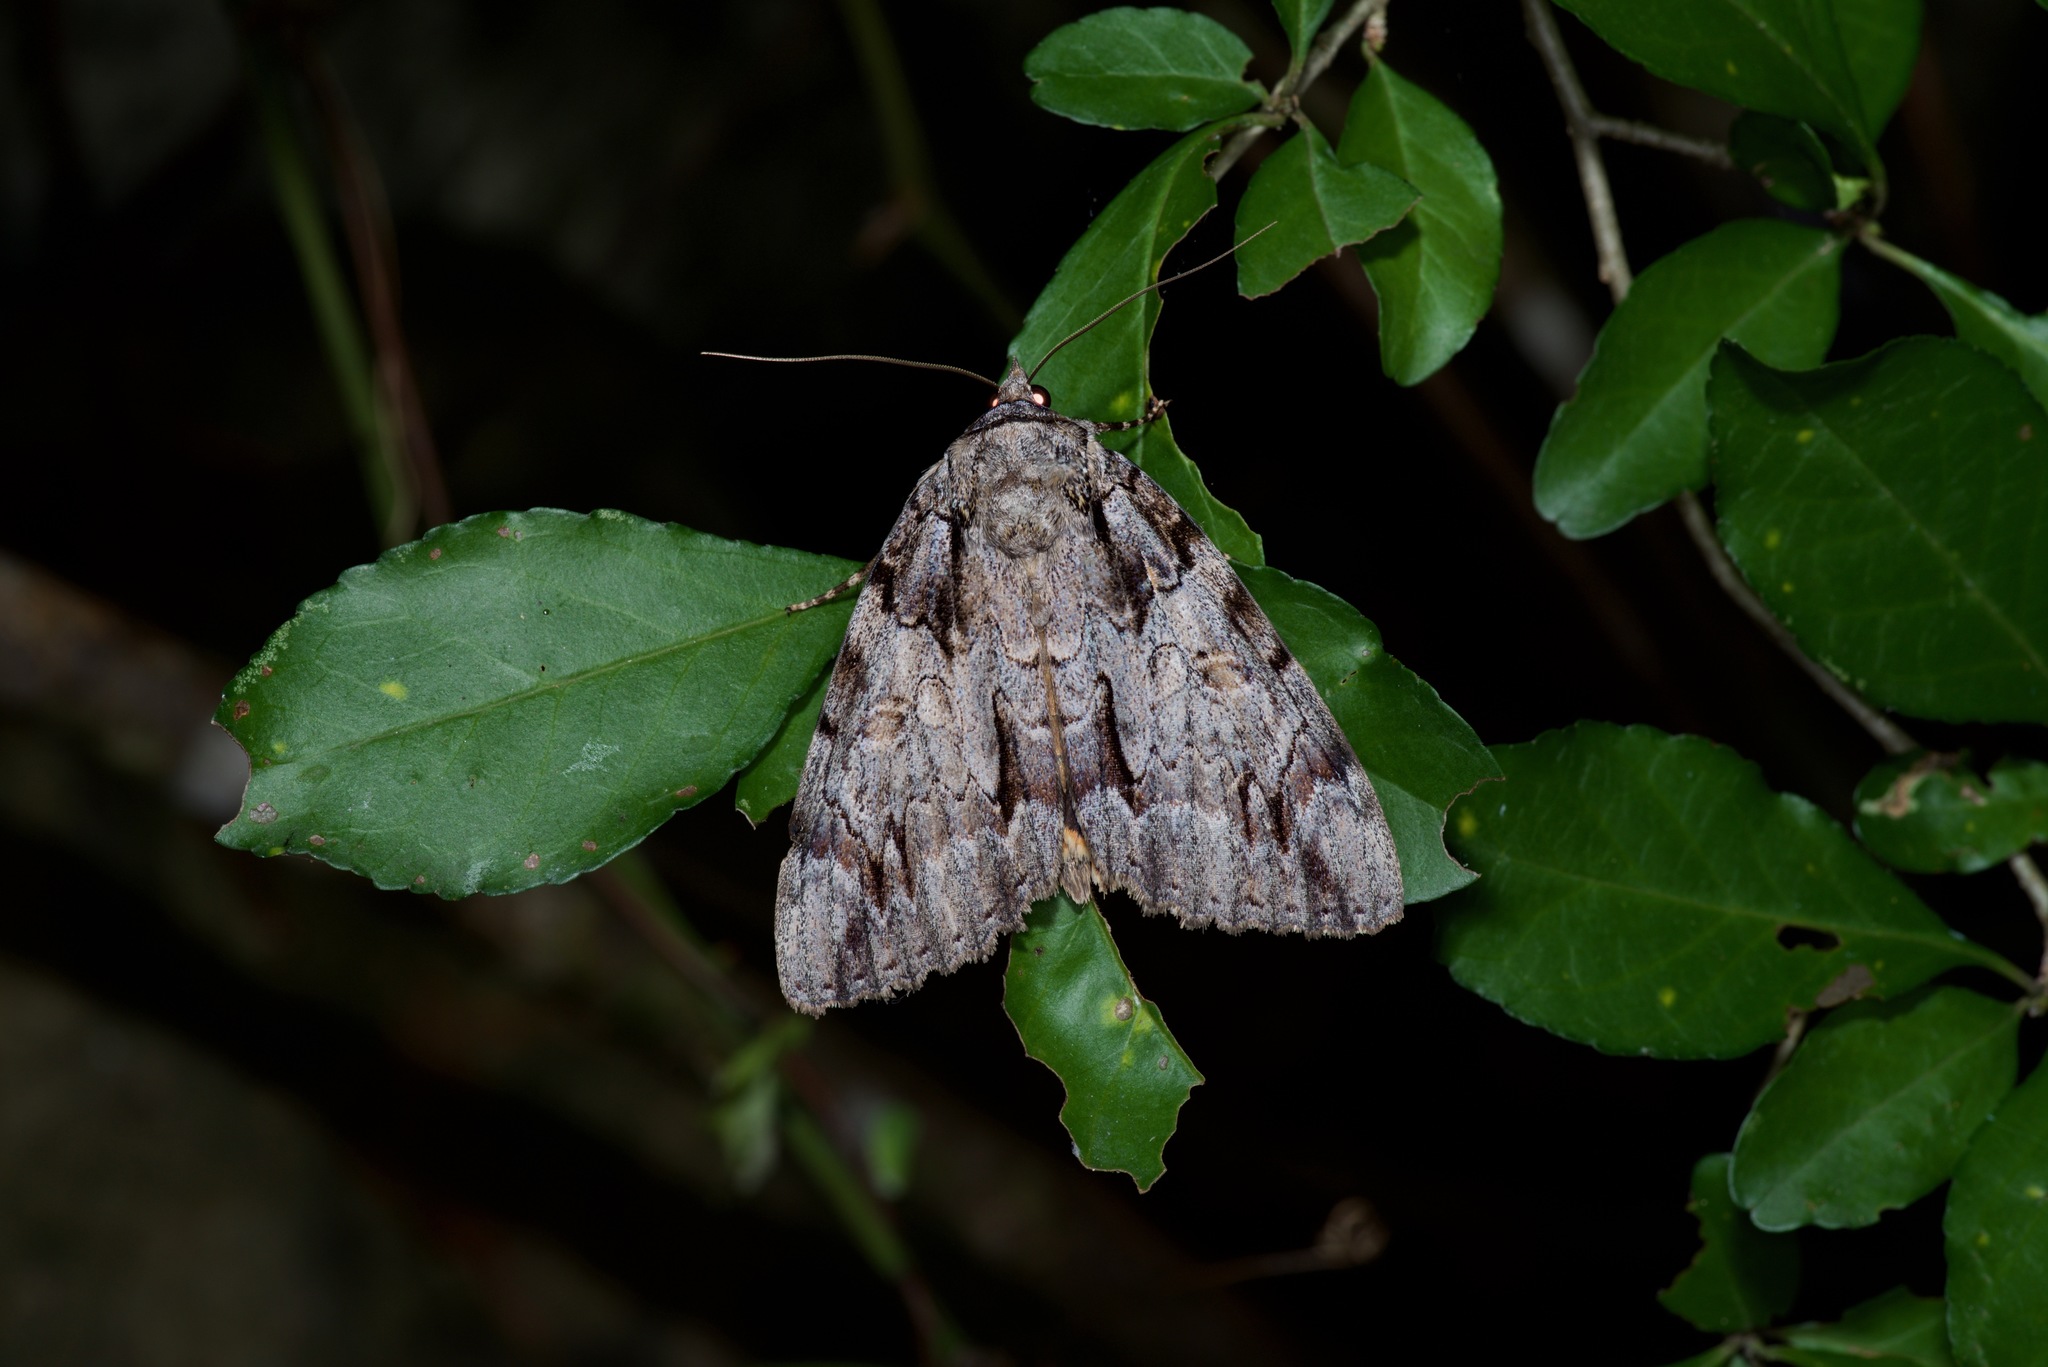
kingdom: Animalia
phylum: Arthropoda
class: Insecta
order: Lepidoptera
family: Erebidae
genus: Catocala
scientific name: Catocala neogama
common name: Bride underwing
